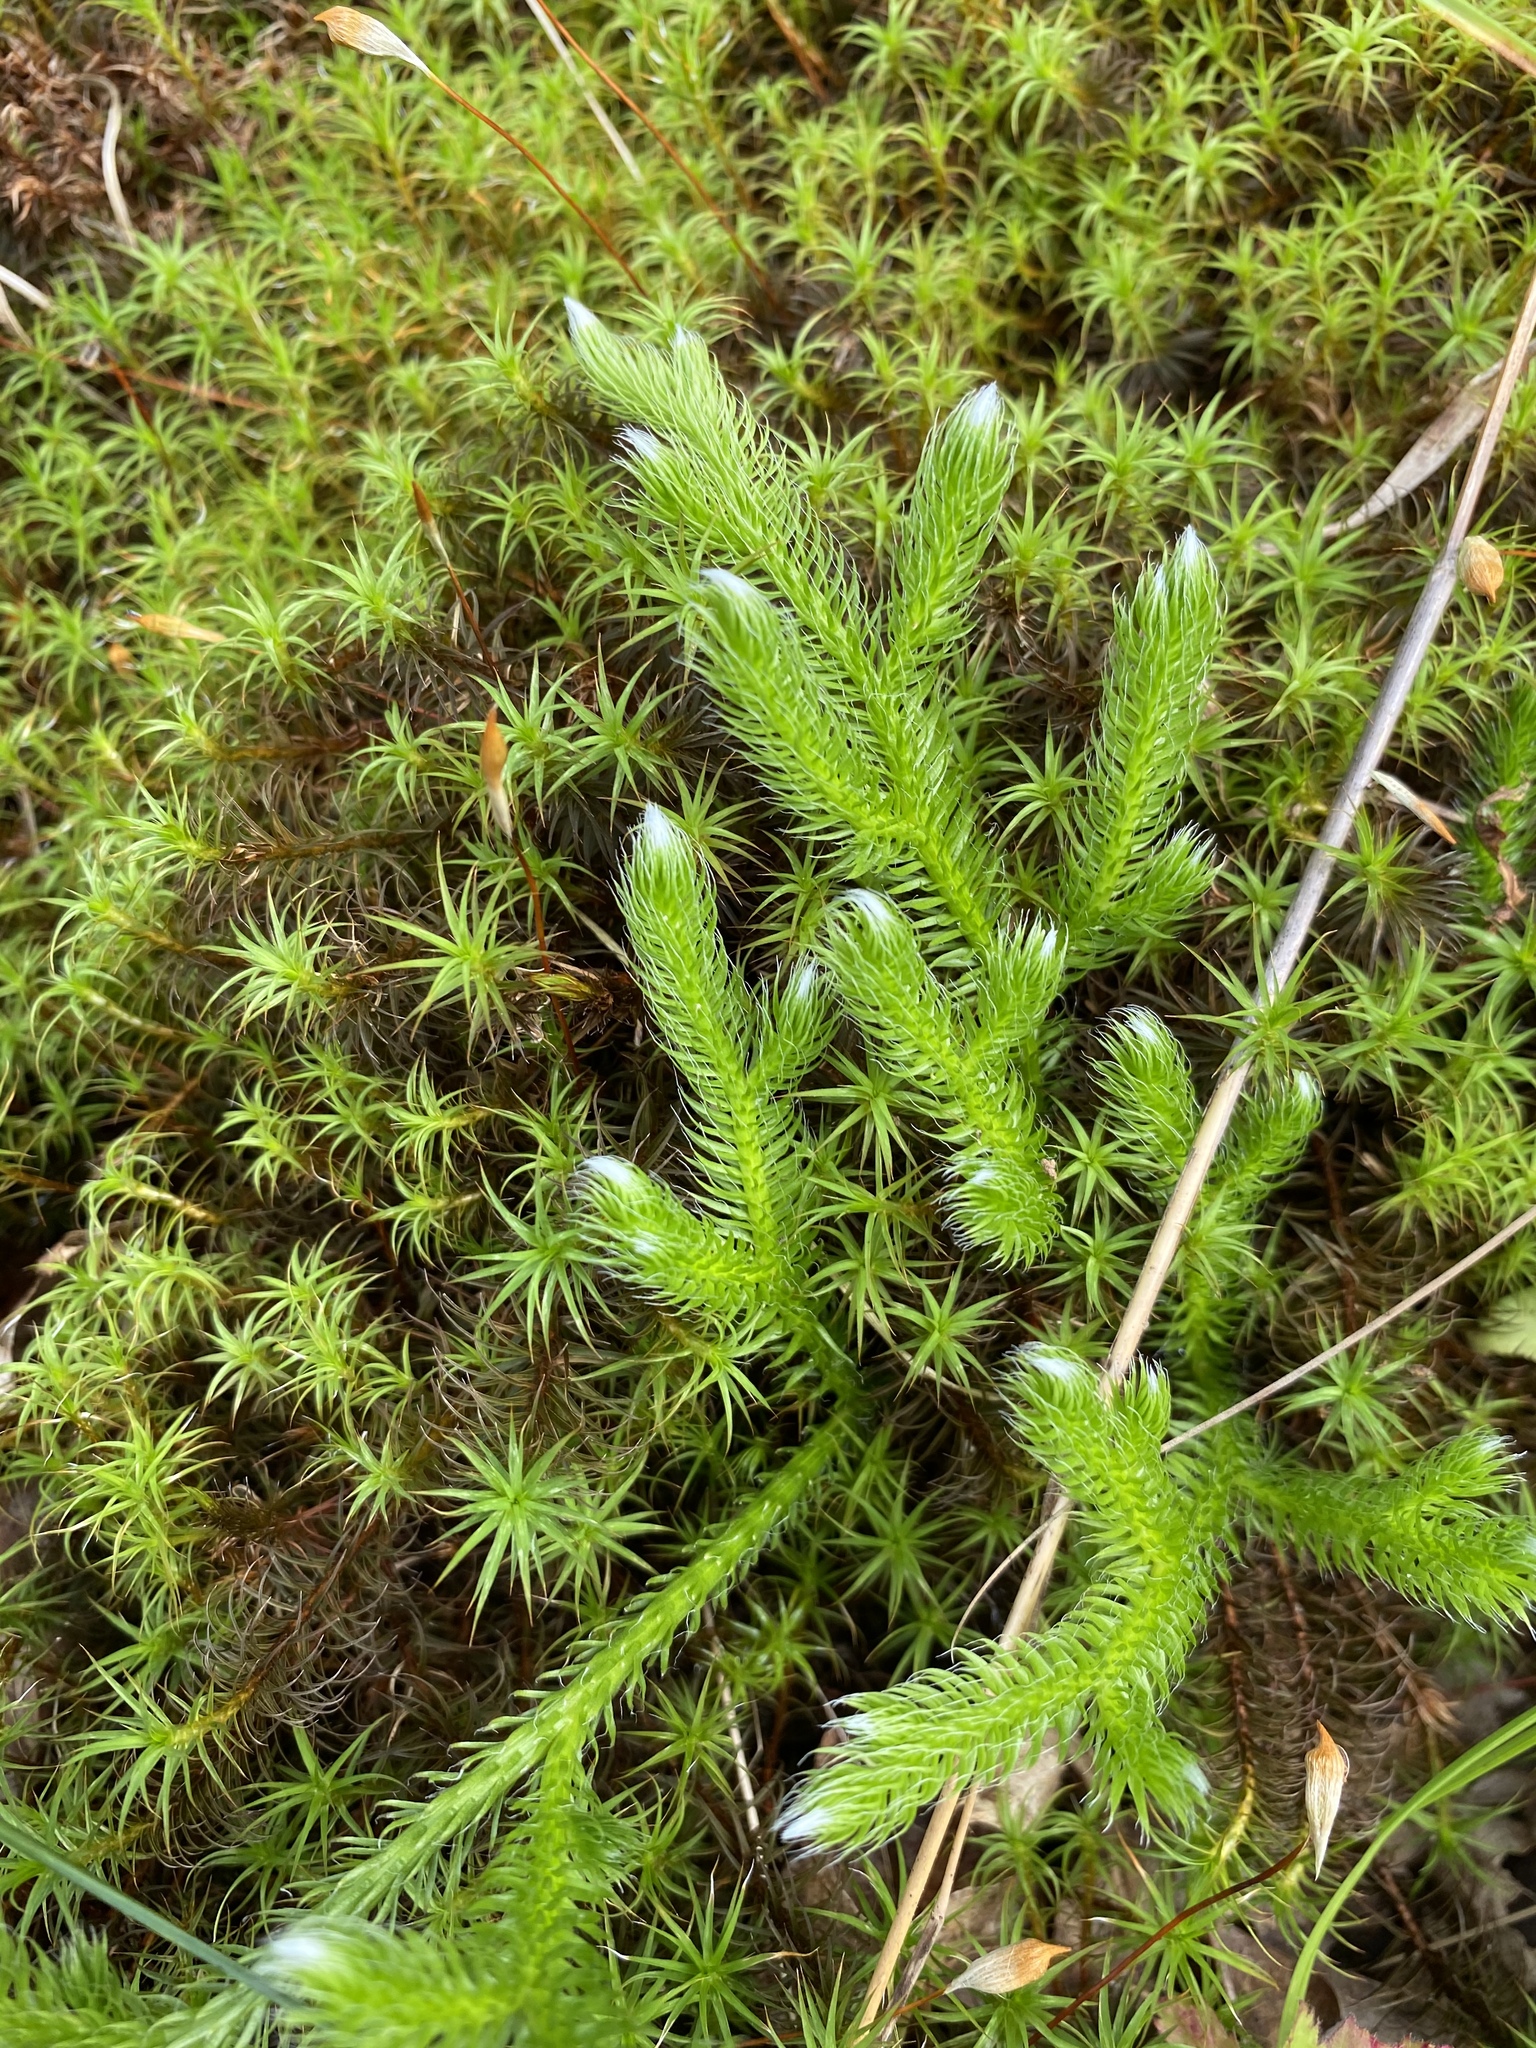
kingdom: Plantae
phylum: Tracheophyta
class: Lycopodiopsida
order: Lycopodiales
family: Lycopodiaceae
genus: Lycopodium
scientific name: Lycopodium clavatum
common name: Stag's-horn clubmoss
